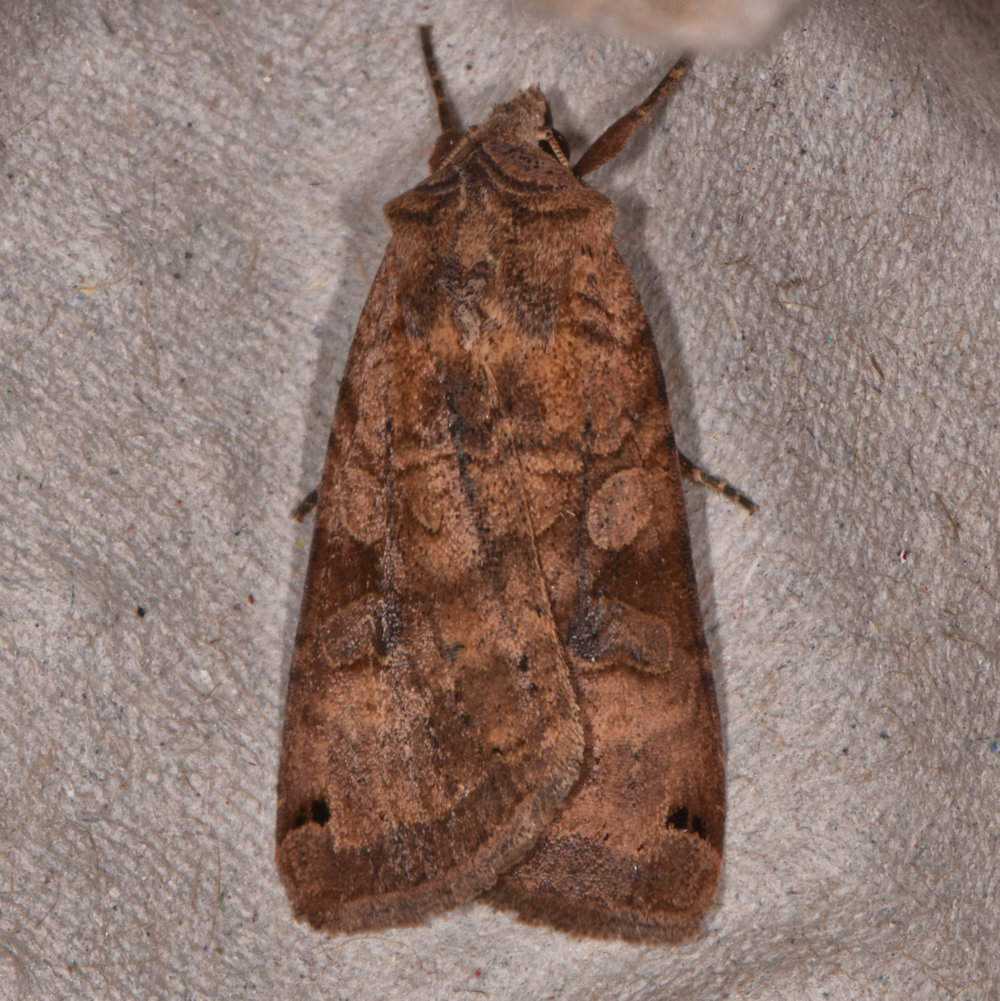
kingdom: Animalia
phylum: Arthropoda
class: Insecta
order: Lepidoptera
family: Noctuidae
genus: Xestia
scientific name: Xestia smithii
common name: Smith's dart
